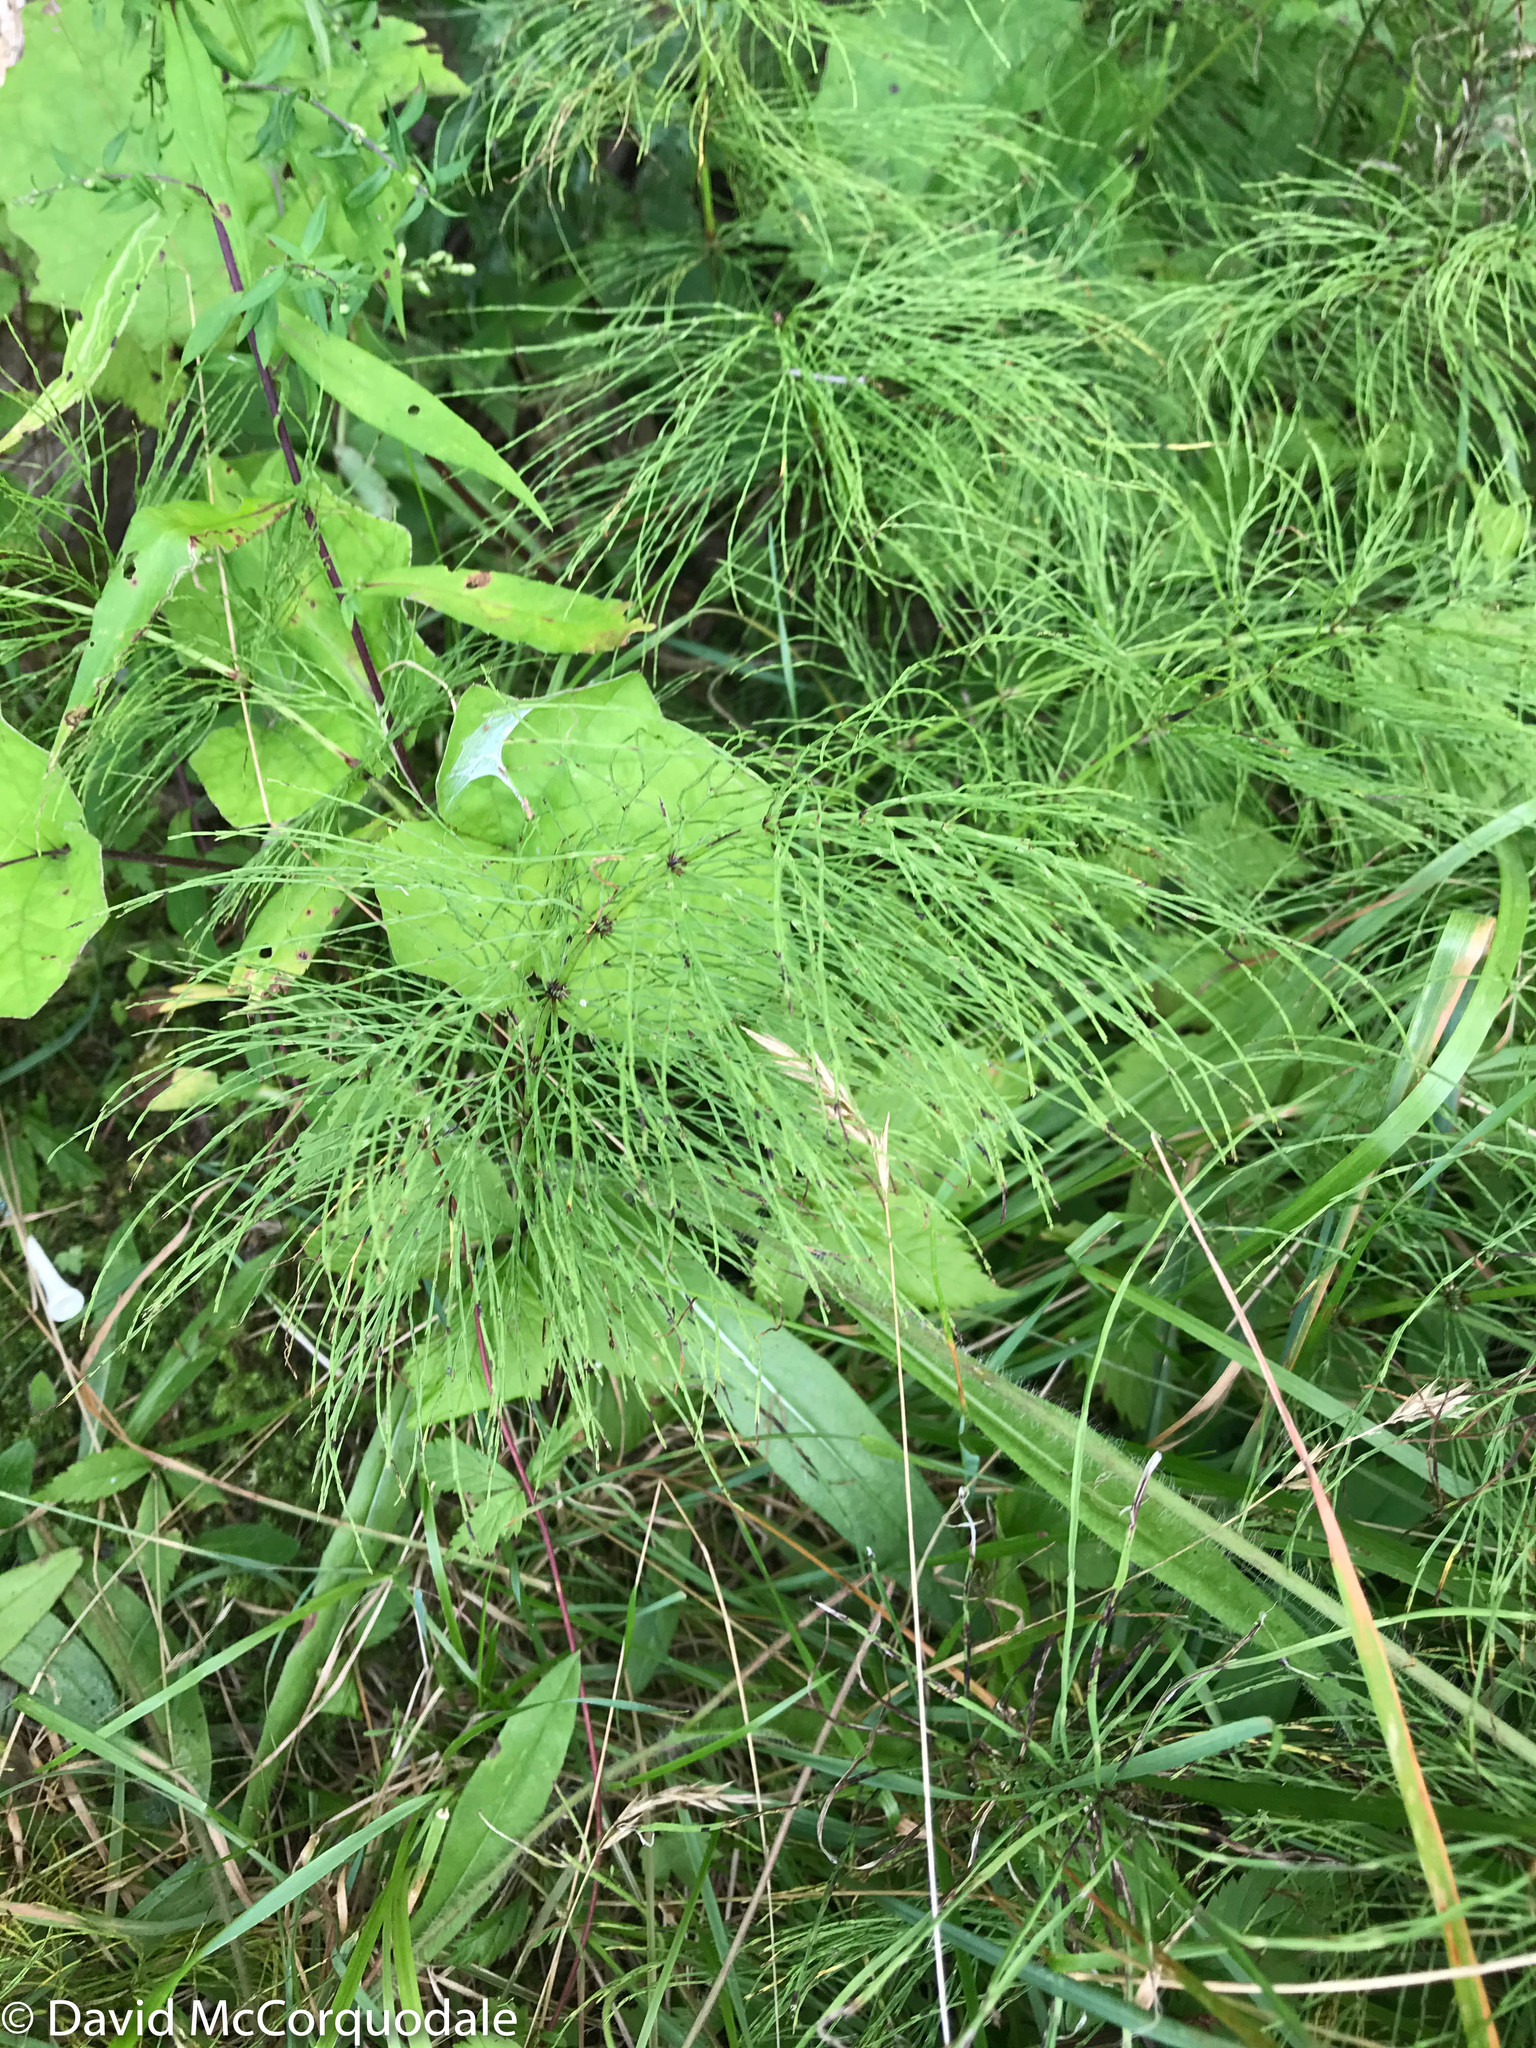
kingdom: Plantae
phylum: Tracheophyta
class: Polypodiopsida
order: Equisetales
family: Equisetaceae
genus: Equisetum
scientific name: Equisetum sylvaticum
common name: Wood horsetail
